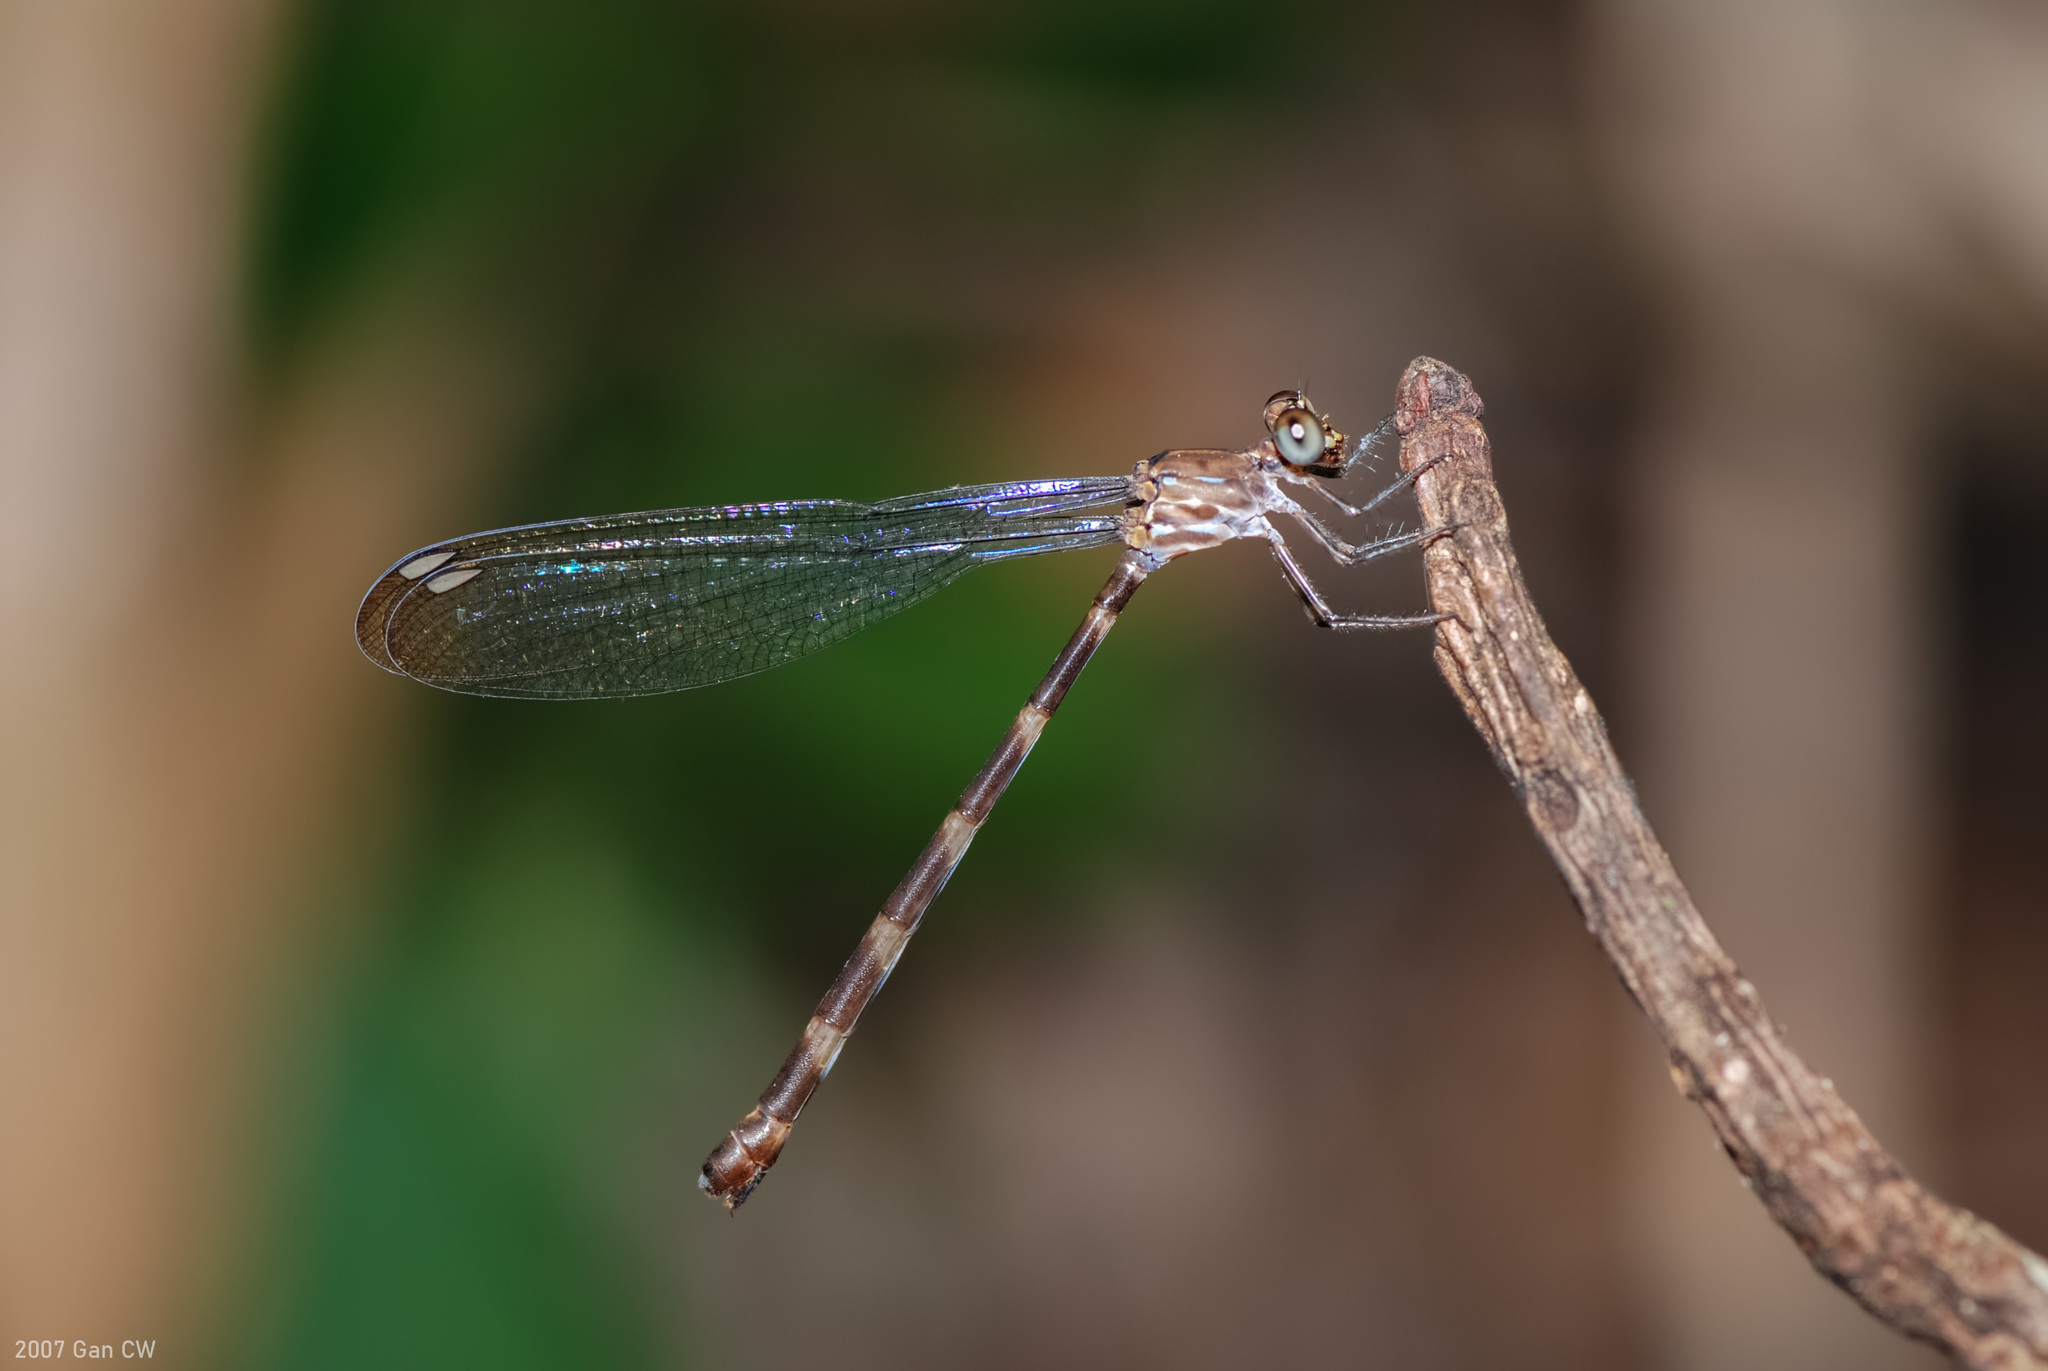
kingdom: Animalia
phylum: Arthropoda
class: Insecta
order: Odonata
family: Devadattidae
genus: Devadatta
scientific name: Devadatta argyoides
